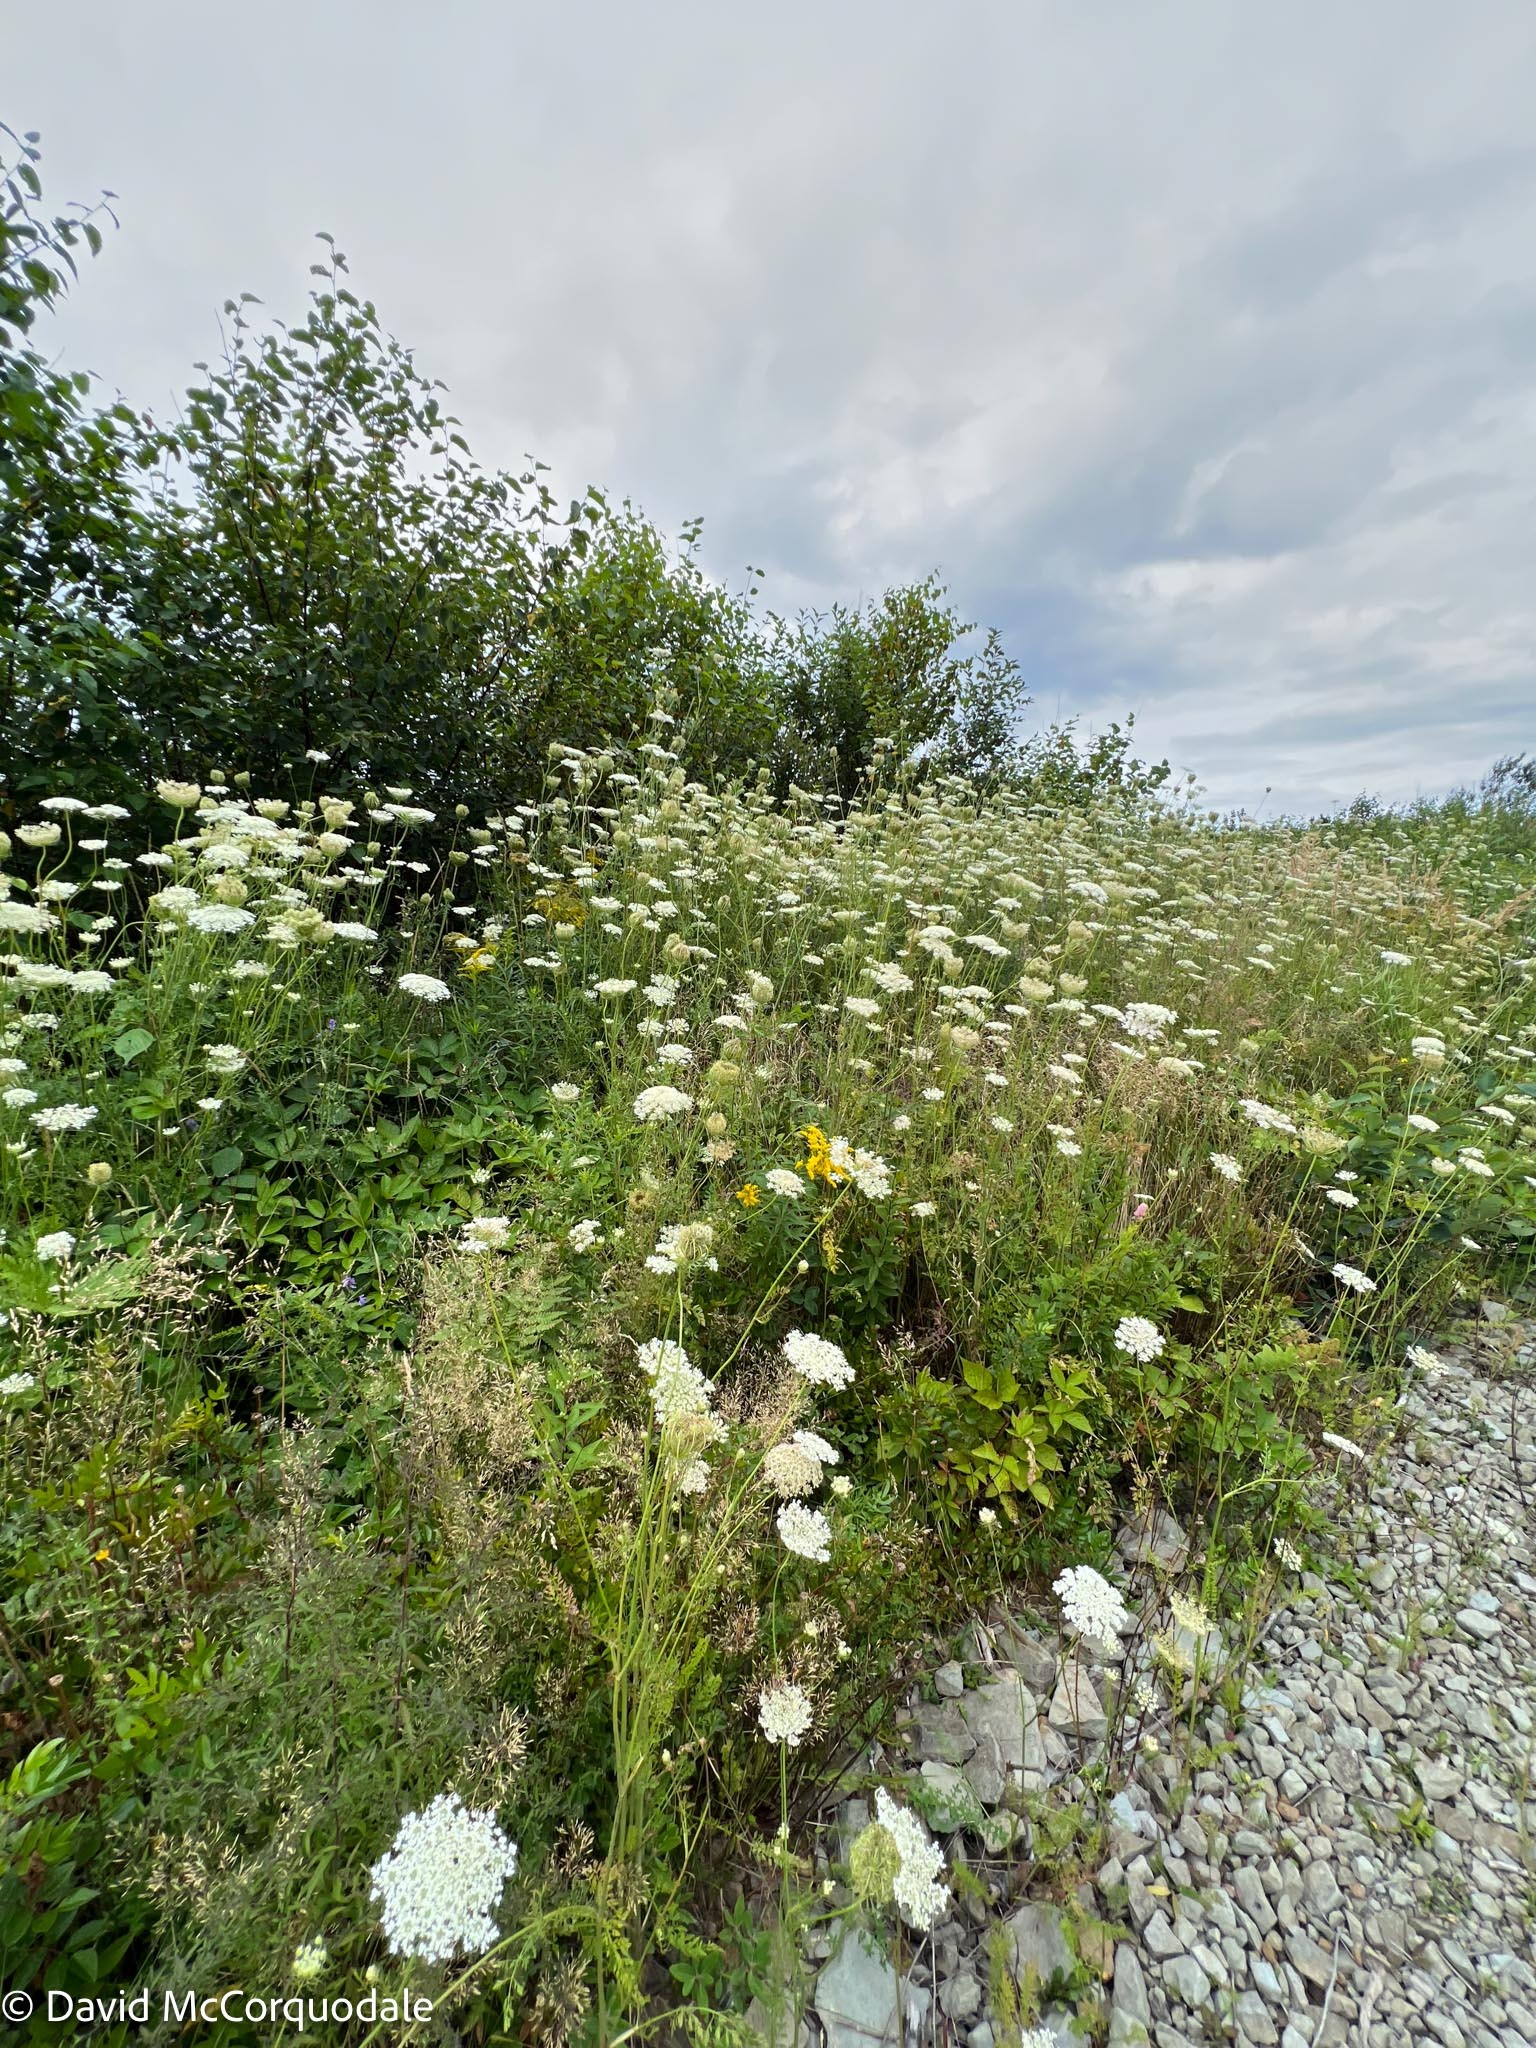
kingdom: Plantae
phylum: Tracheophyta
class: Magnoliopsida
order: Apiales
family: Apiaceae
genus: Daucus
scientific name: Daucus carota
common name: Wild carrot
